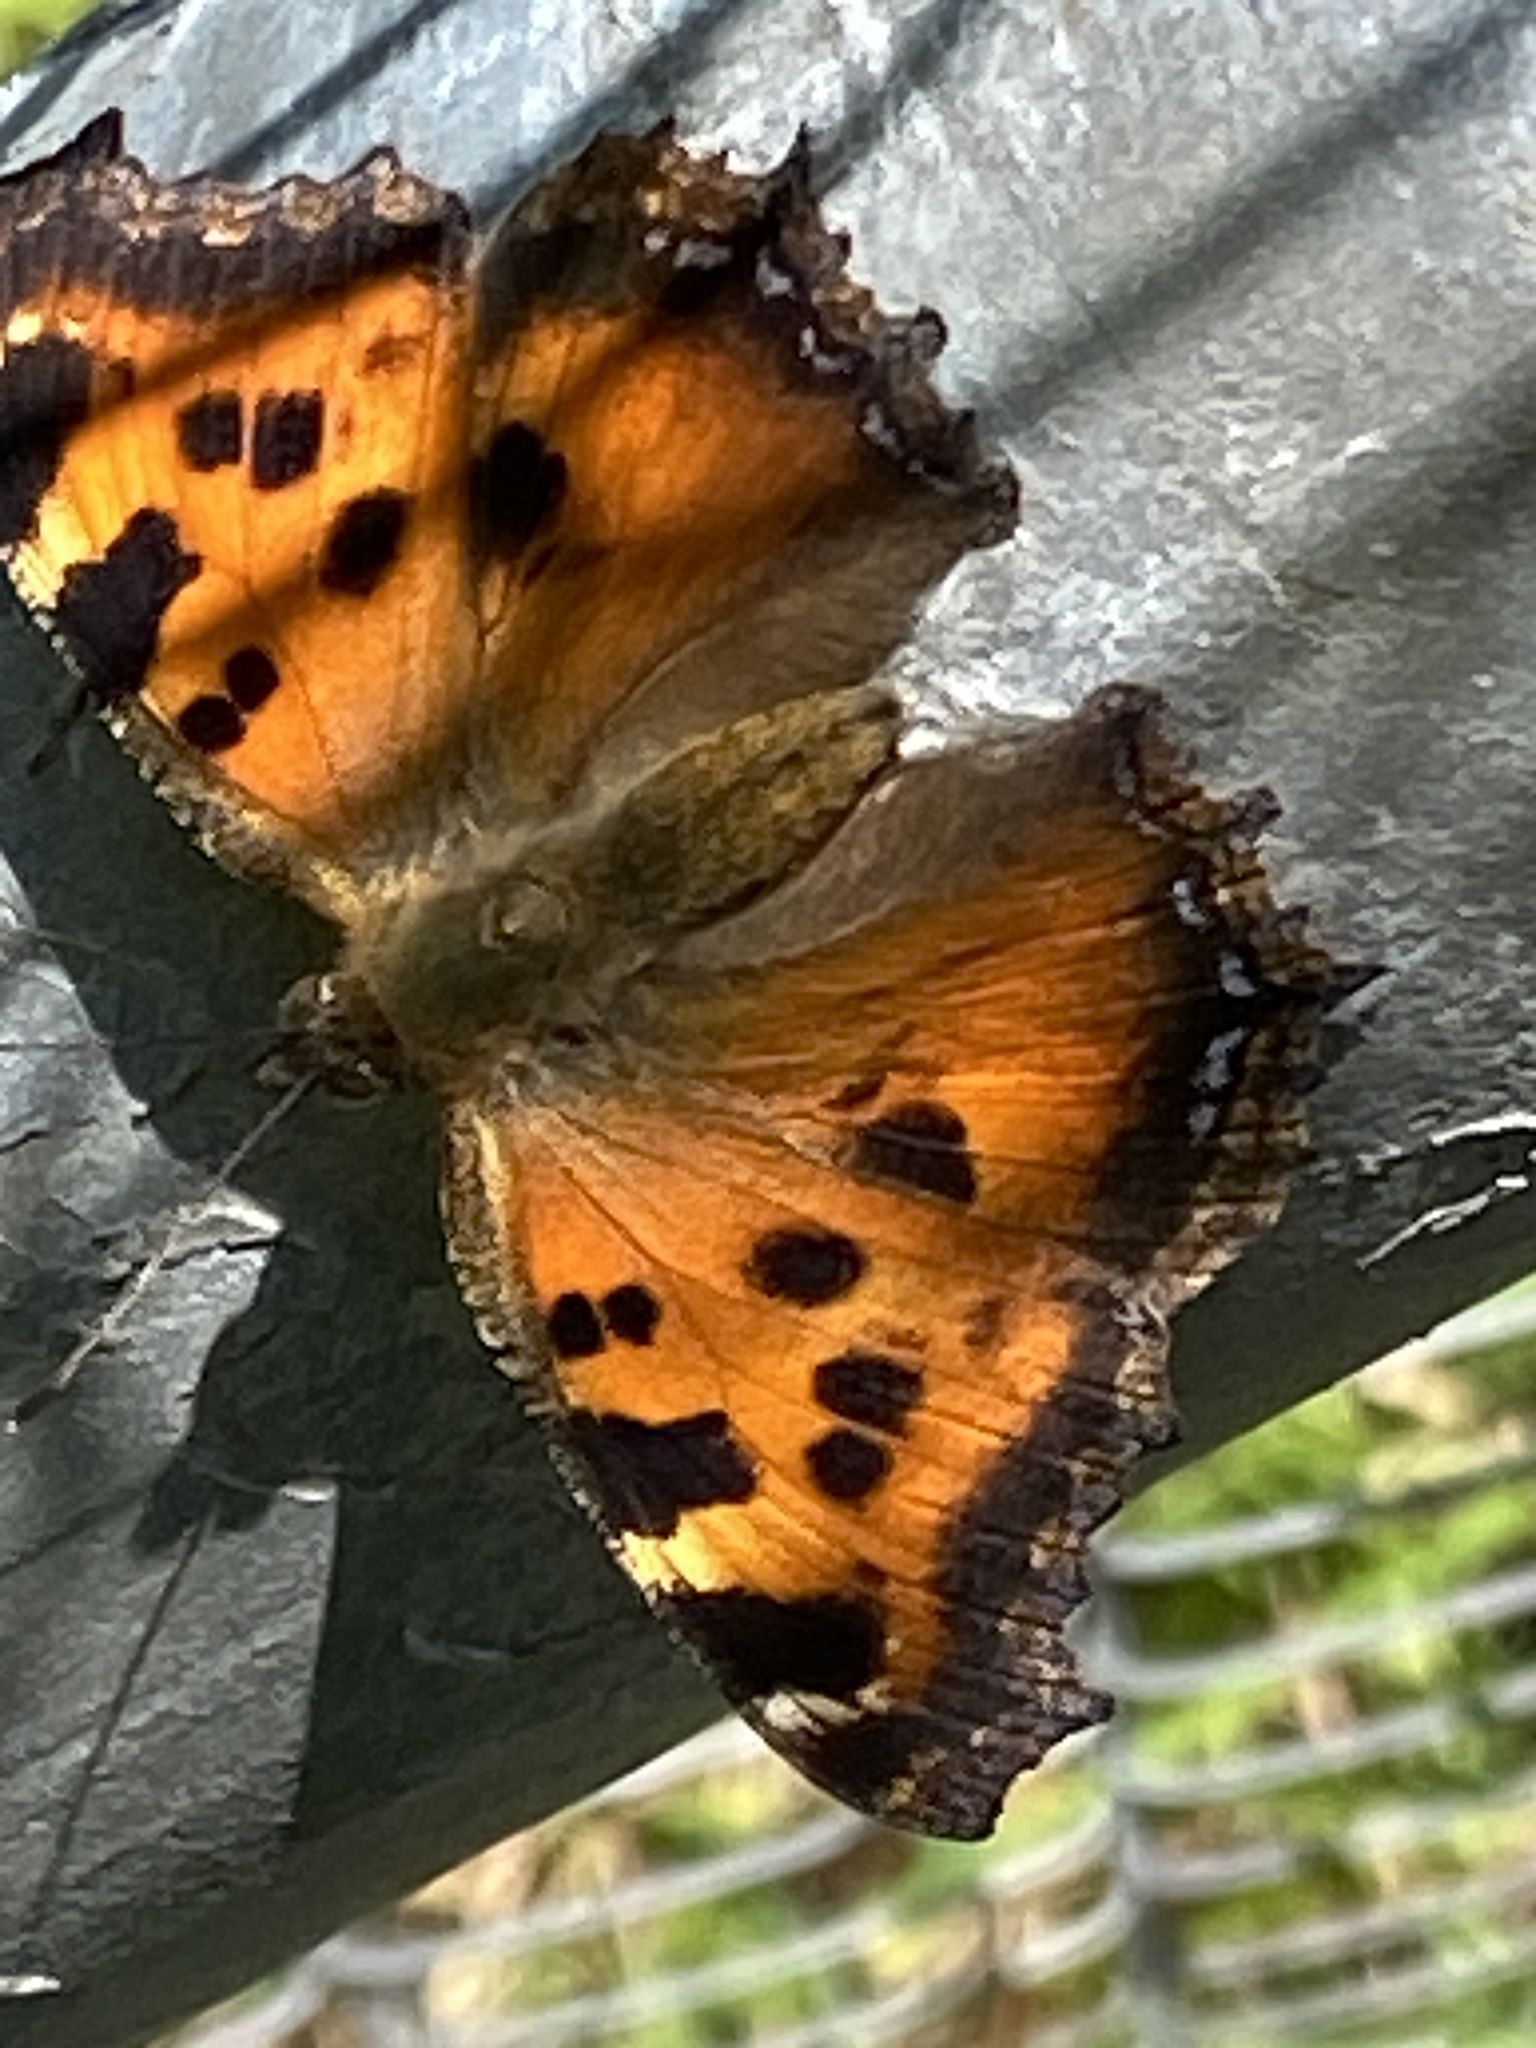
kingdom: Animalia
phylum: Arthropoda
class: Insecta
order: Lepidoptera
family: Nymphalidae
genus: Nymphalis
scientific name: Nymphalis xanthomelas
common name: Scarce tortoiseshell
